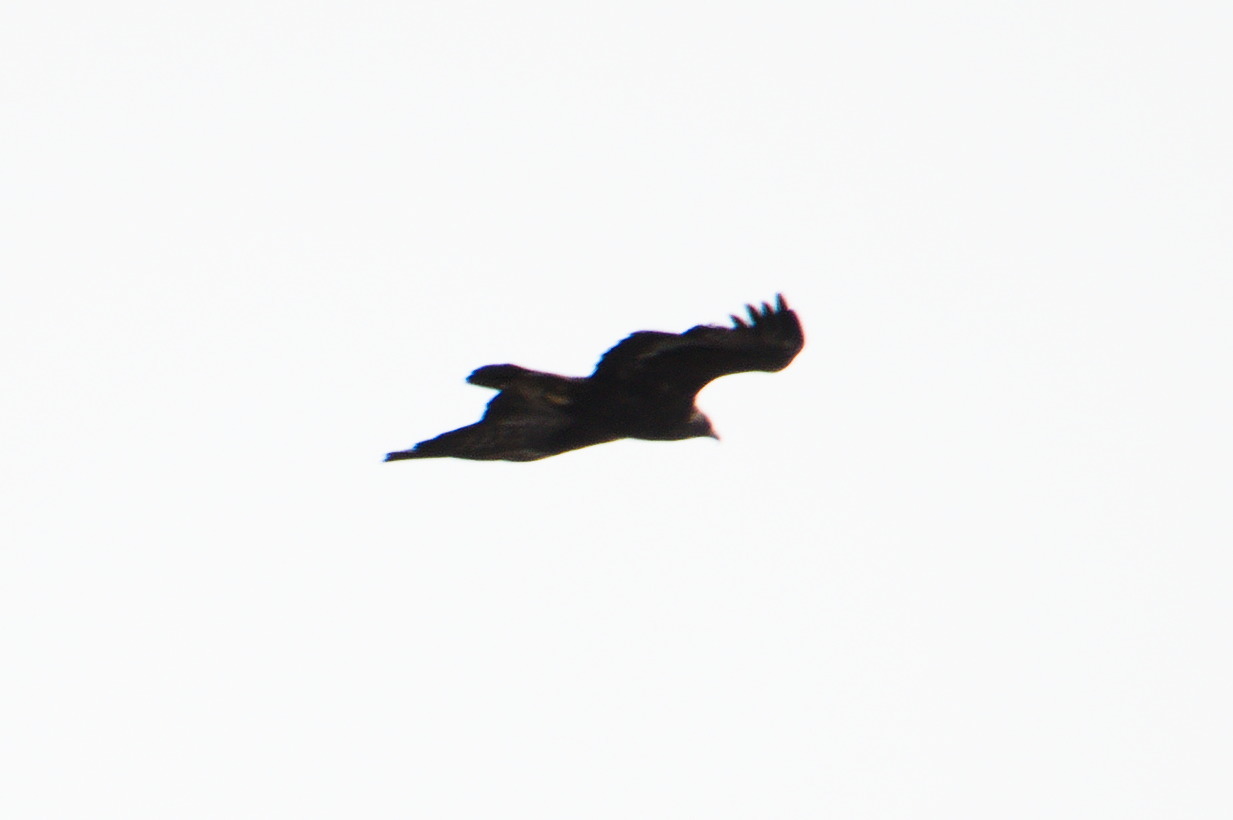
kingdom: Animalia
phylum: Chordata
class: Aves
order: Accipitriformes
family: Accipitridae
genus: Aquila
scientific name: Aquila chrysaetos
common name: Golden eagle
